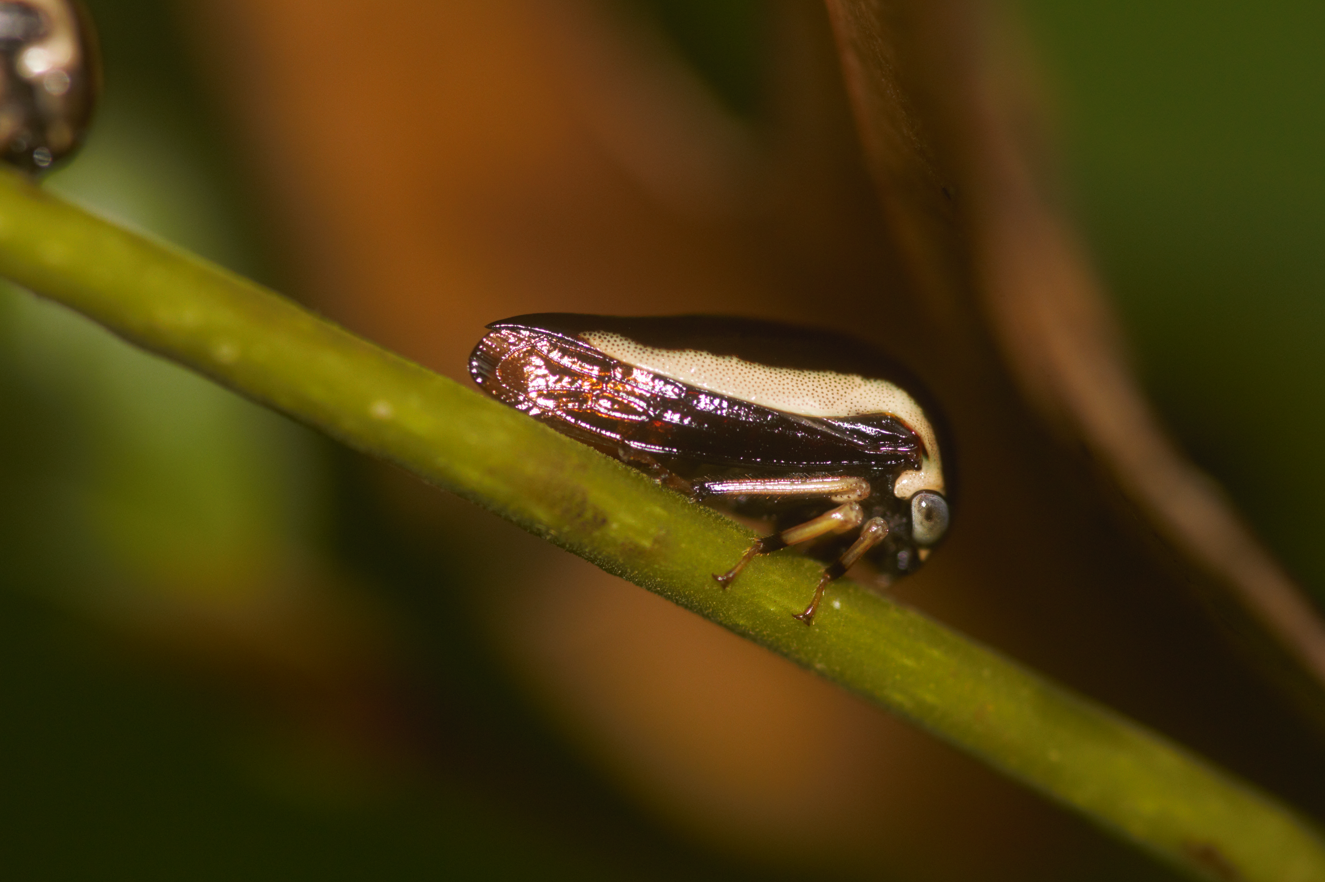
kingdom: Animalia
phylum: Arthropoda
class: Insecta
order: Hemiptera
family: Membracidae
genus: Darnis
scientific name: Darnis lateralis
